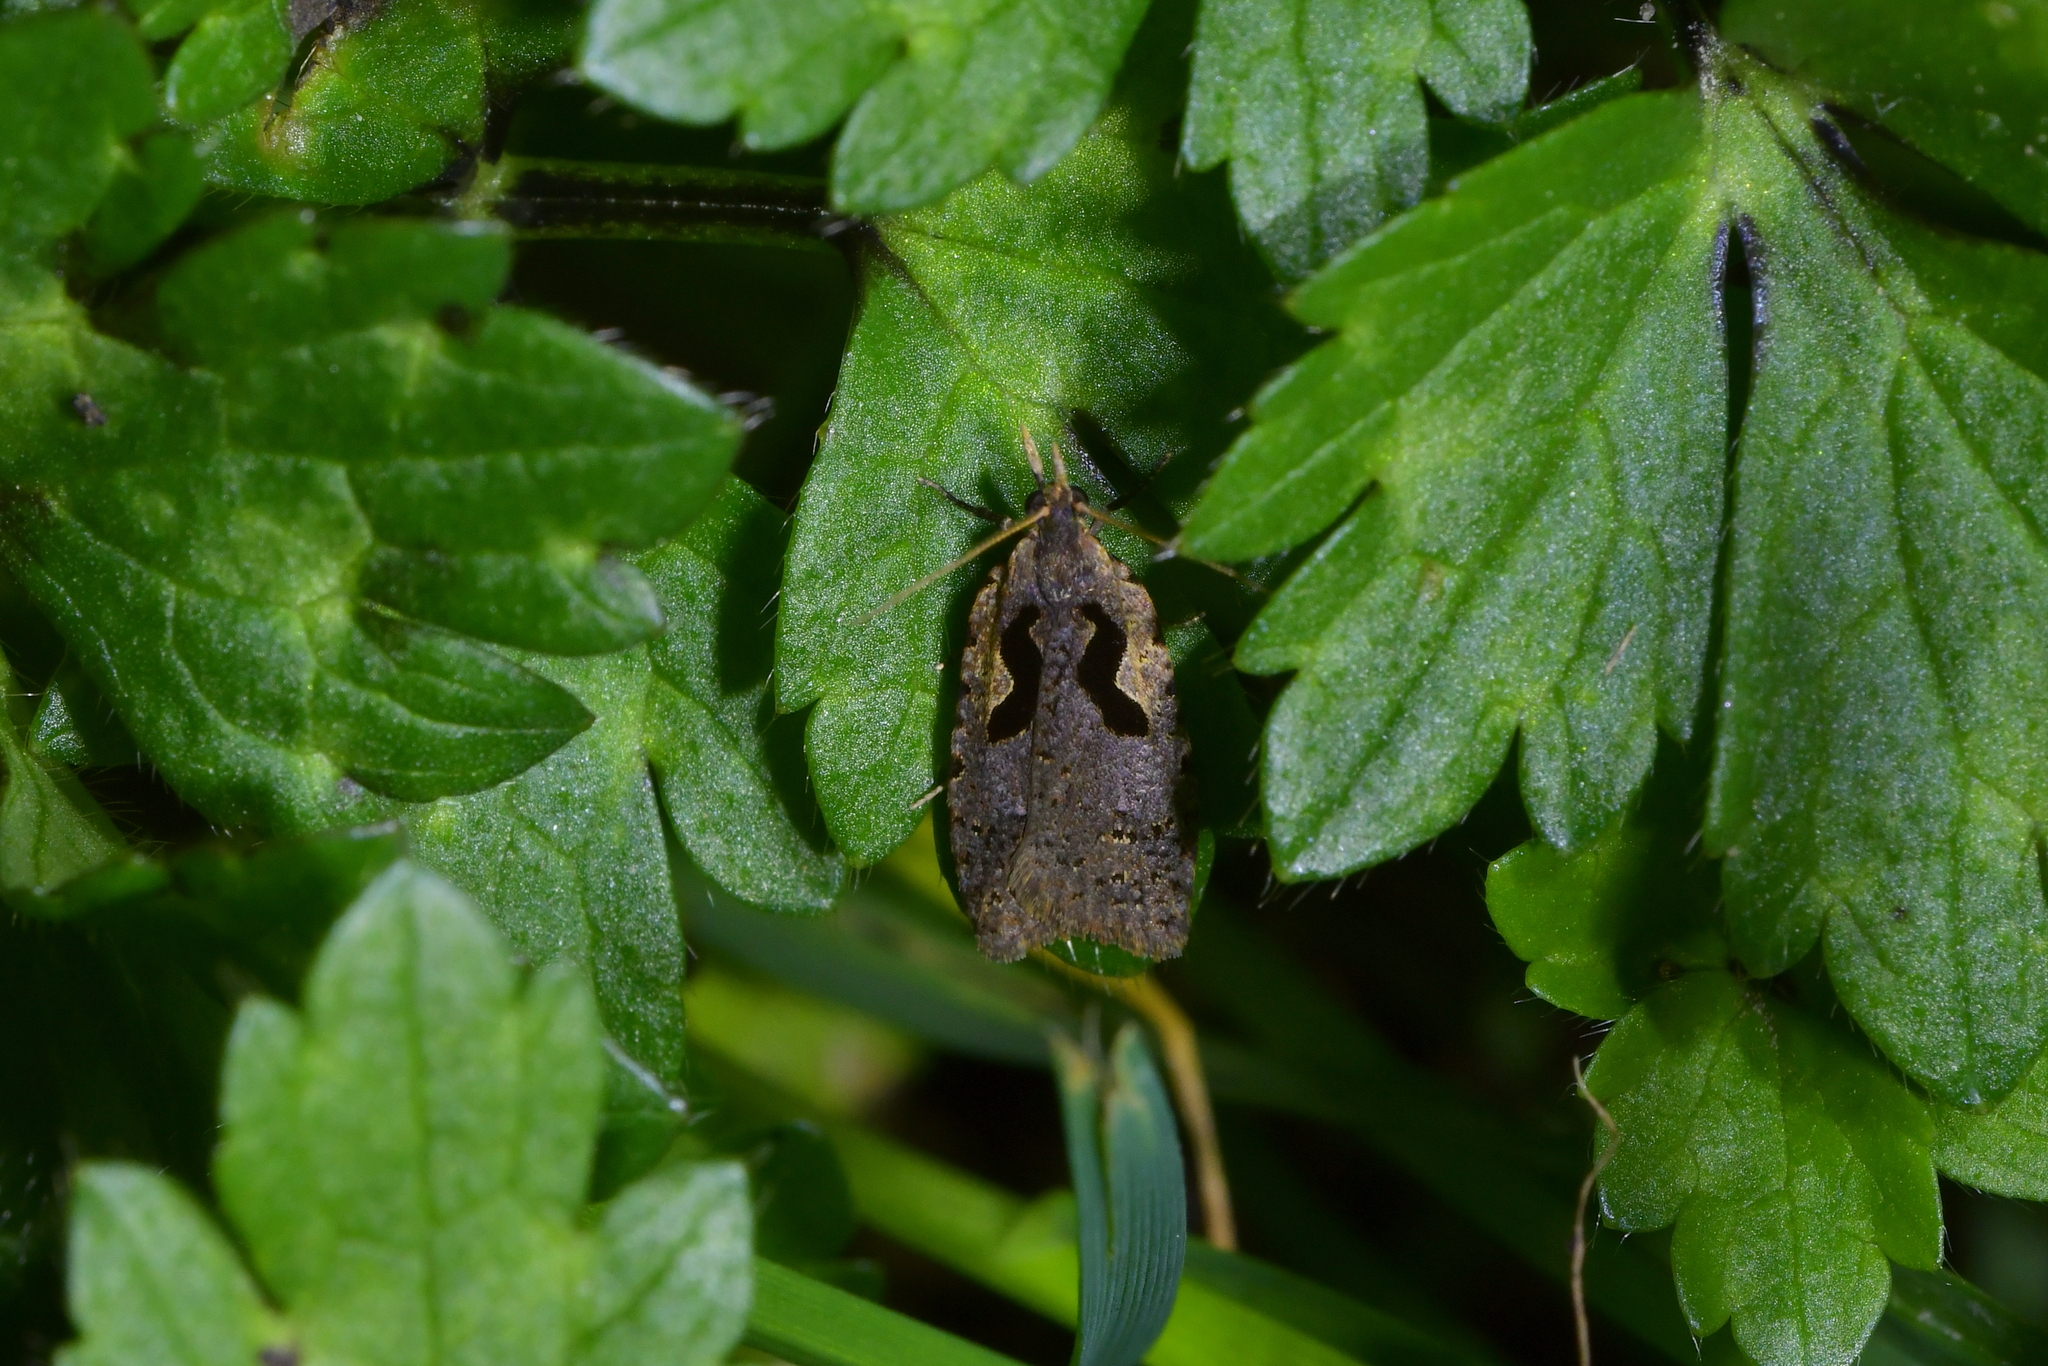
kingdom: Animalia
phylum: Arthropoda
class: Insecta
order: Lepidoptera
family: Tortricidae
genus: Cnephasia
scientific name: Cnephasia jactatana
